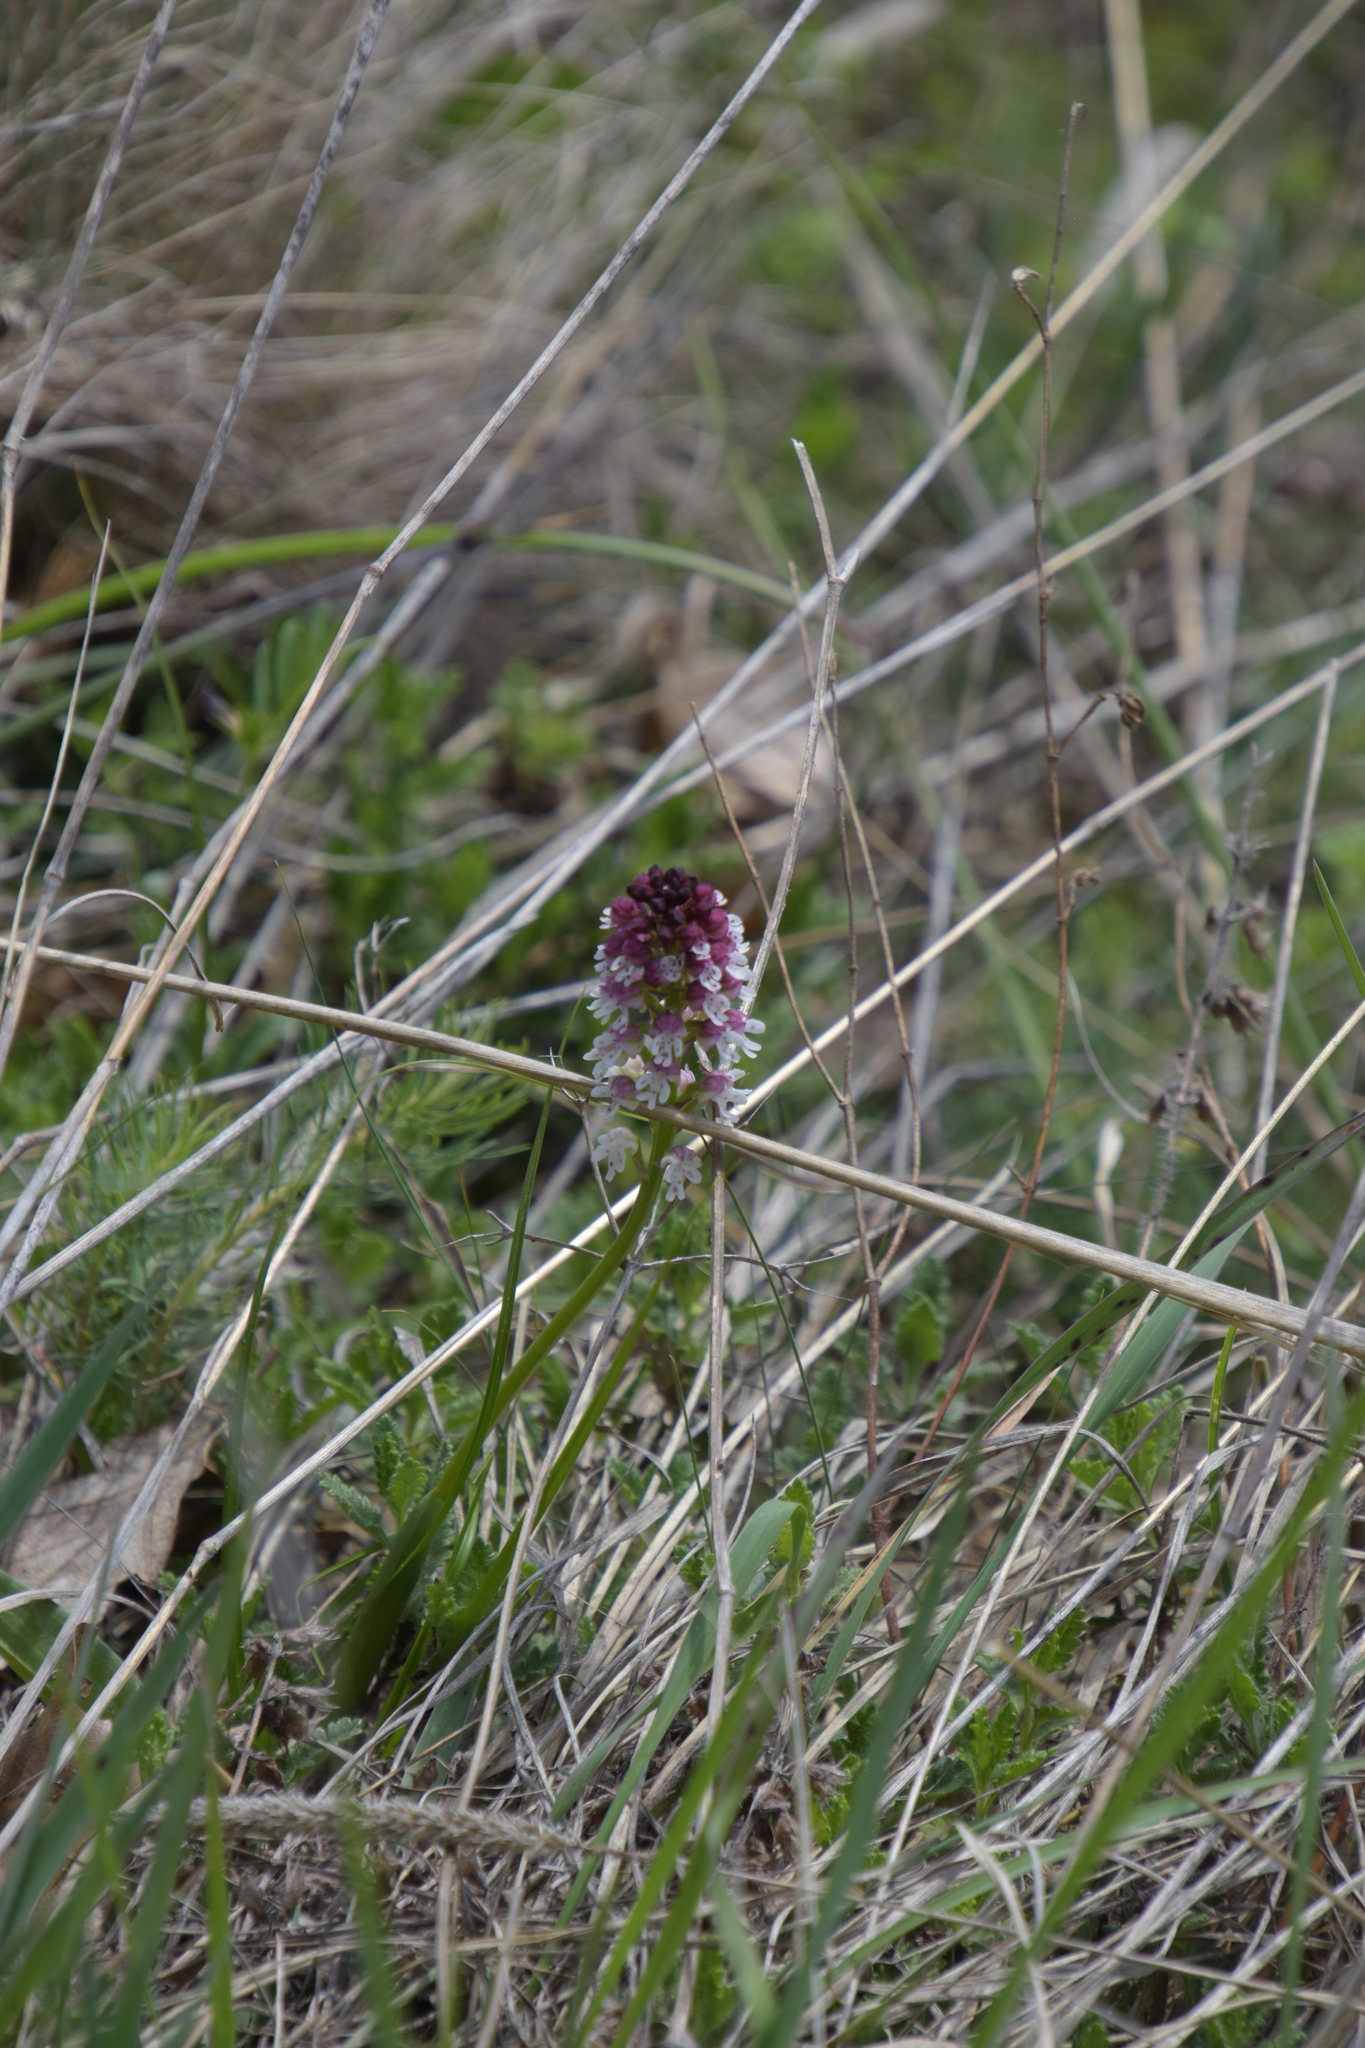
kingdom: Plantae
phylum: Tracheophyta
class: Liliopsida
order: Asparagales
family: Orchidaceae
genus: Neotinea
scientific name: Neotinea ustulata
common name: Burnt orchid
